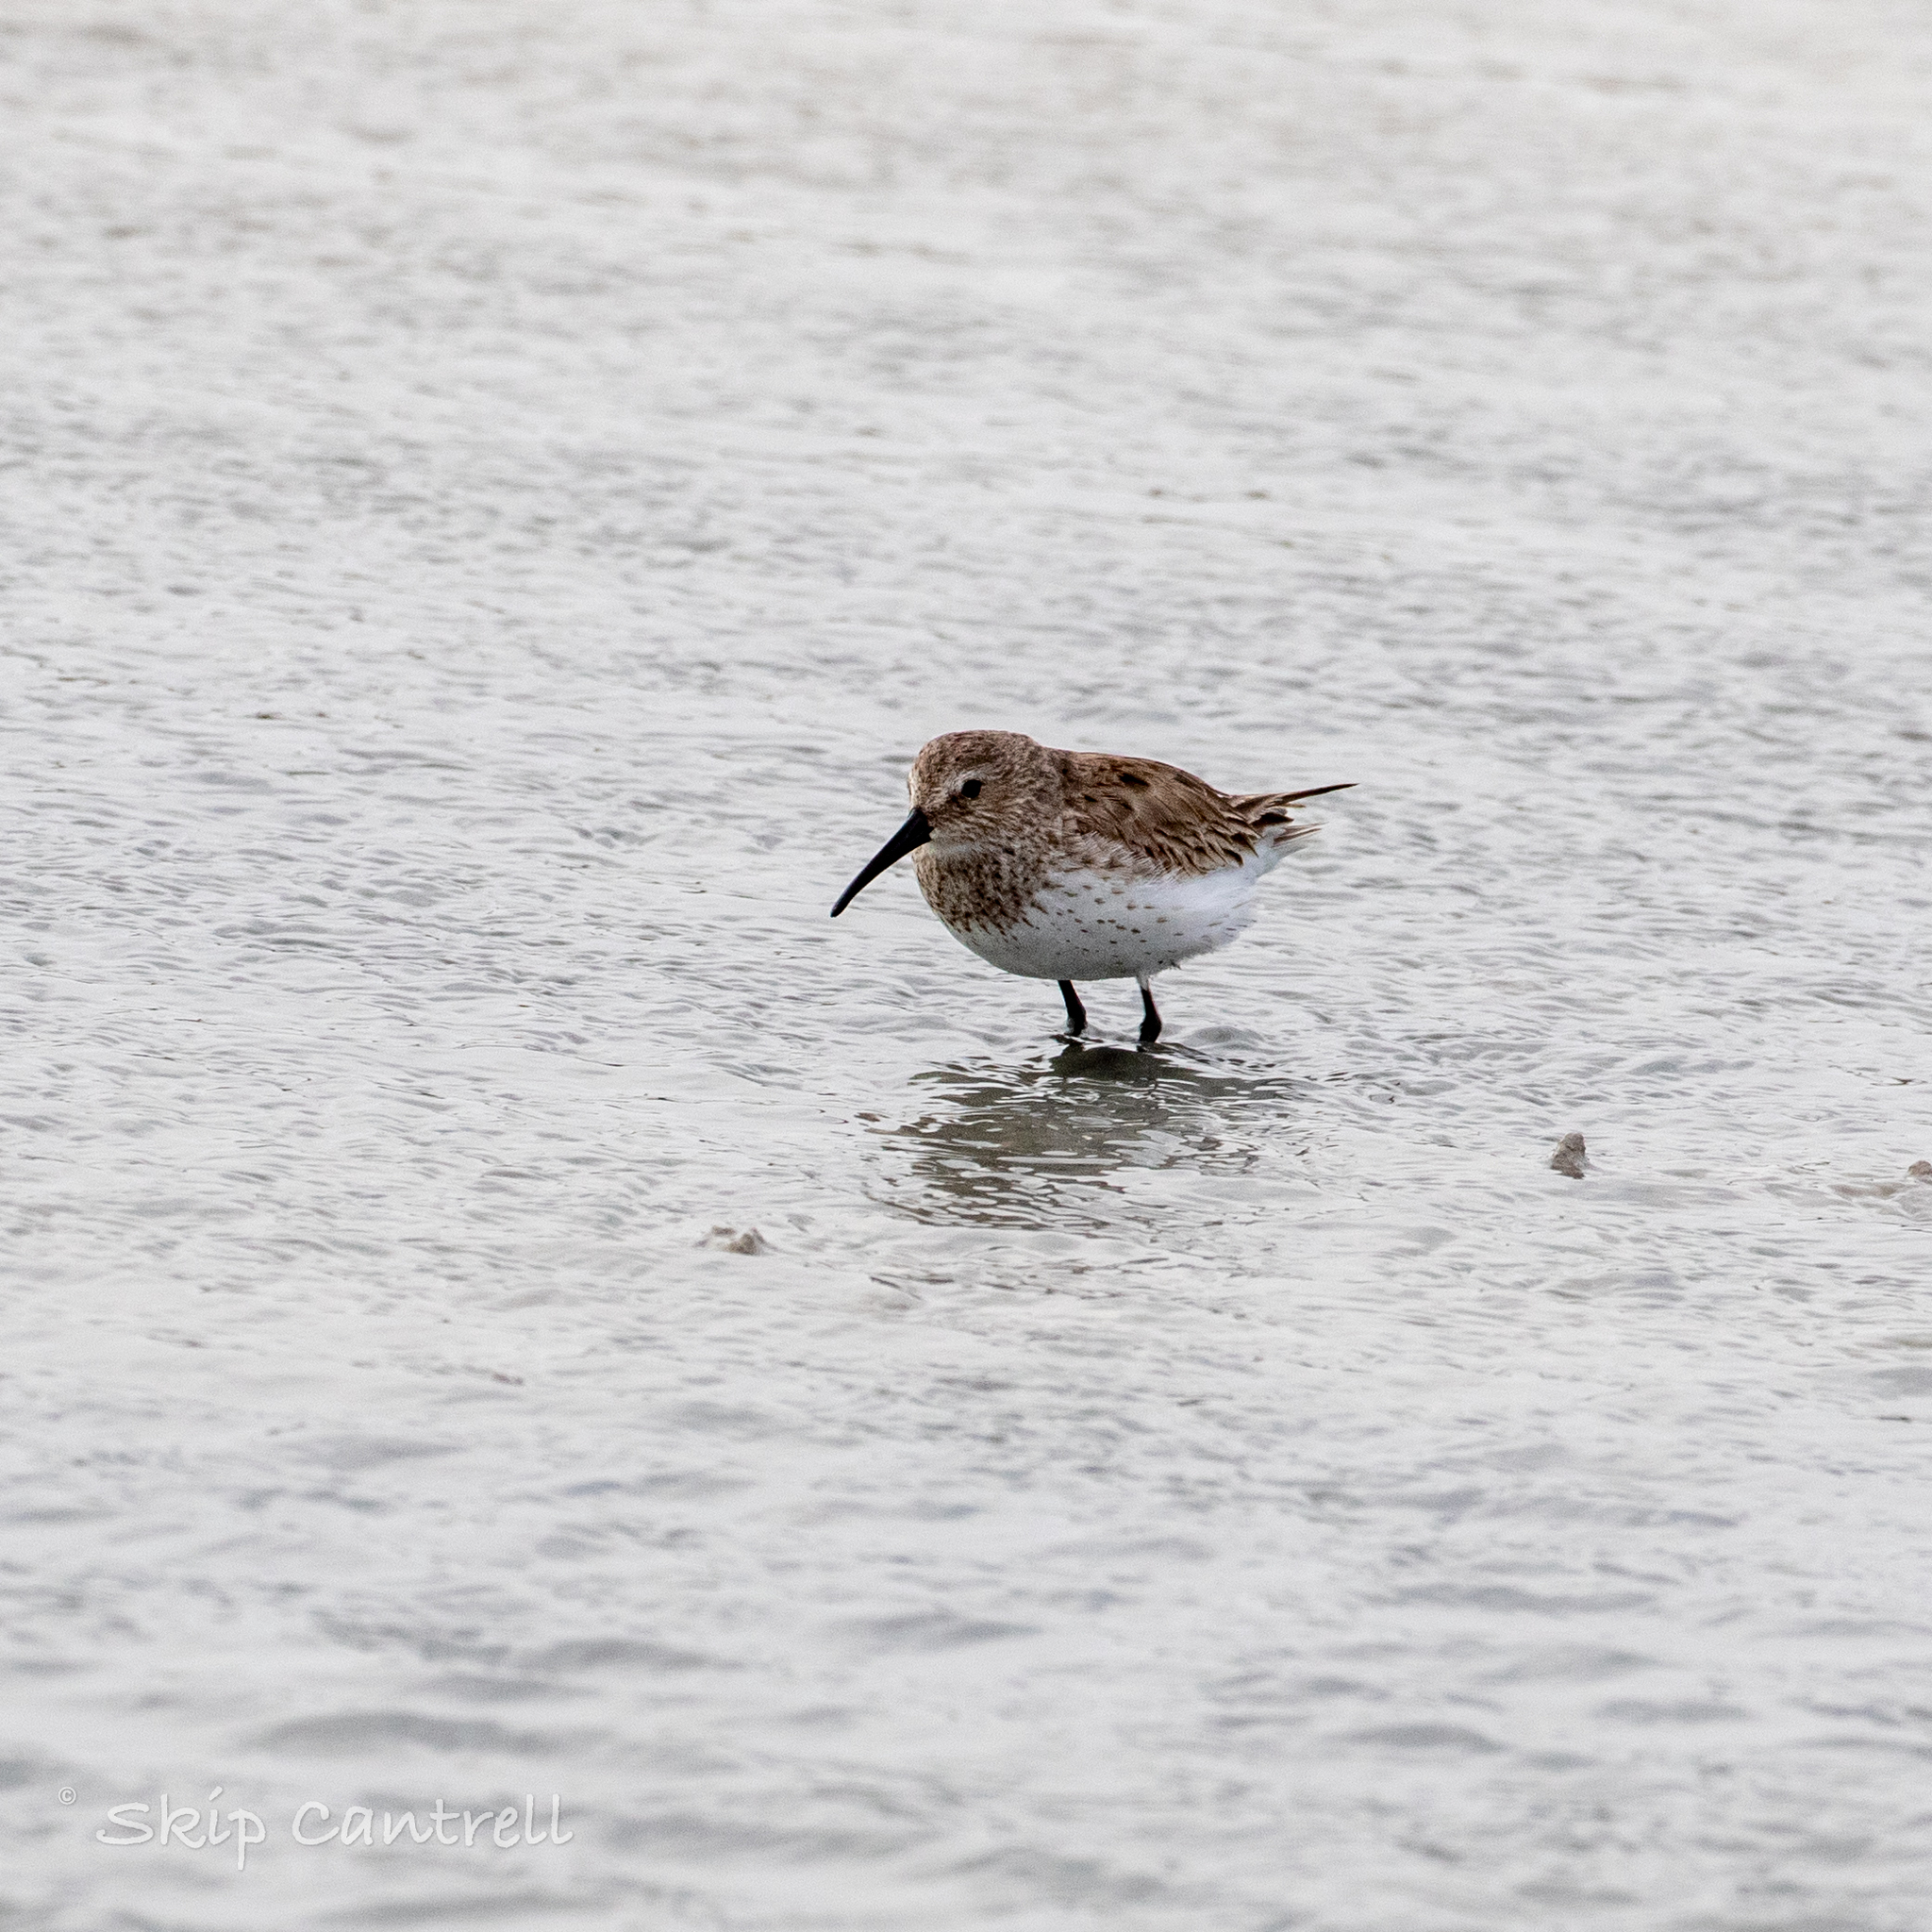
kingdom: Animalia
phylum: Chordata
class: Aves
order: Charadriiformes
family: Scolopacidae
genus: Calidris
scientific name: Calidris alpina
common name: Dunlin
